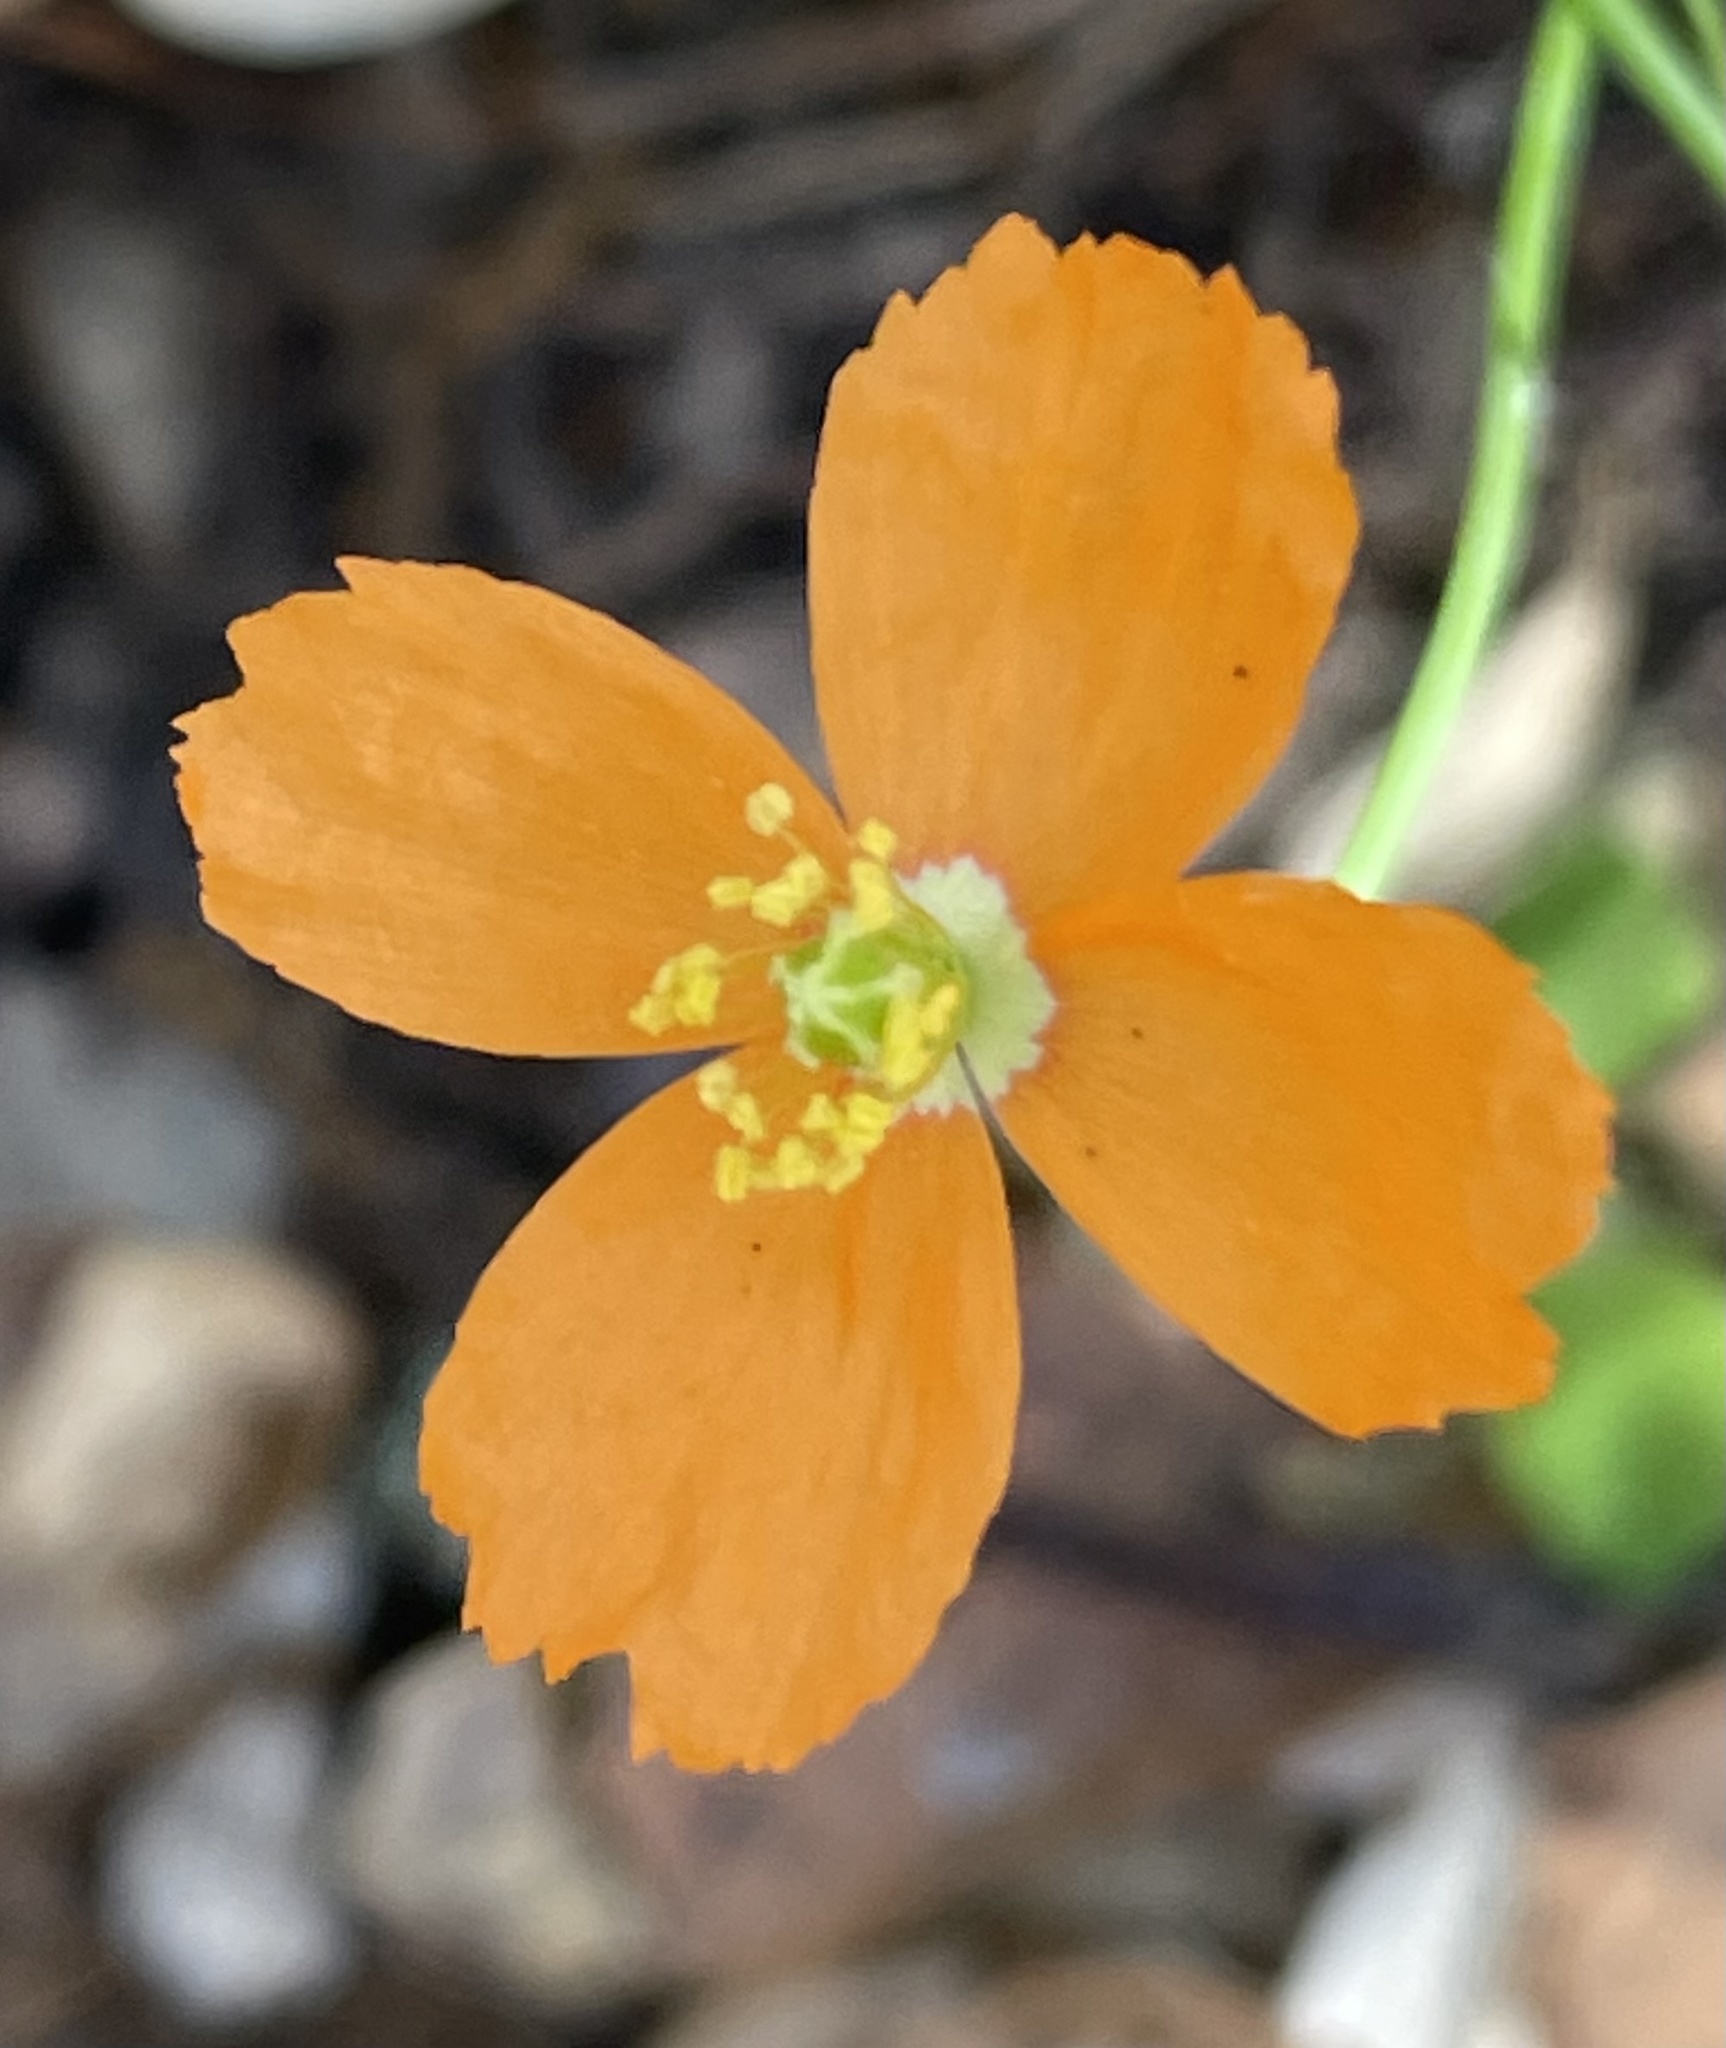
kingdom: Plantae
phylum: Tracheophyta
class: Magnoliopsida
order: Ranunculales
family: Papaveraceae
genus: Papaver
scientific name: Papaver californicum
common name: Fire poppy
